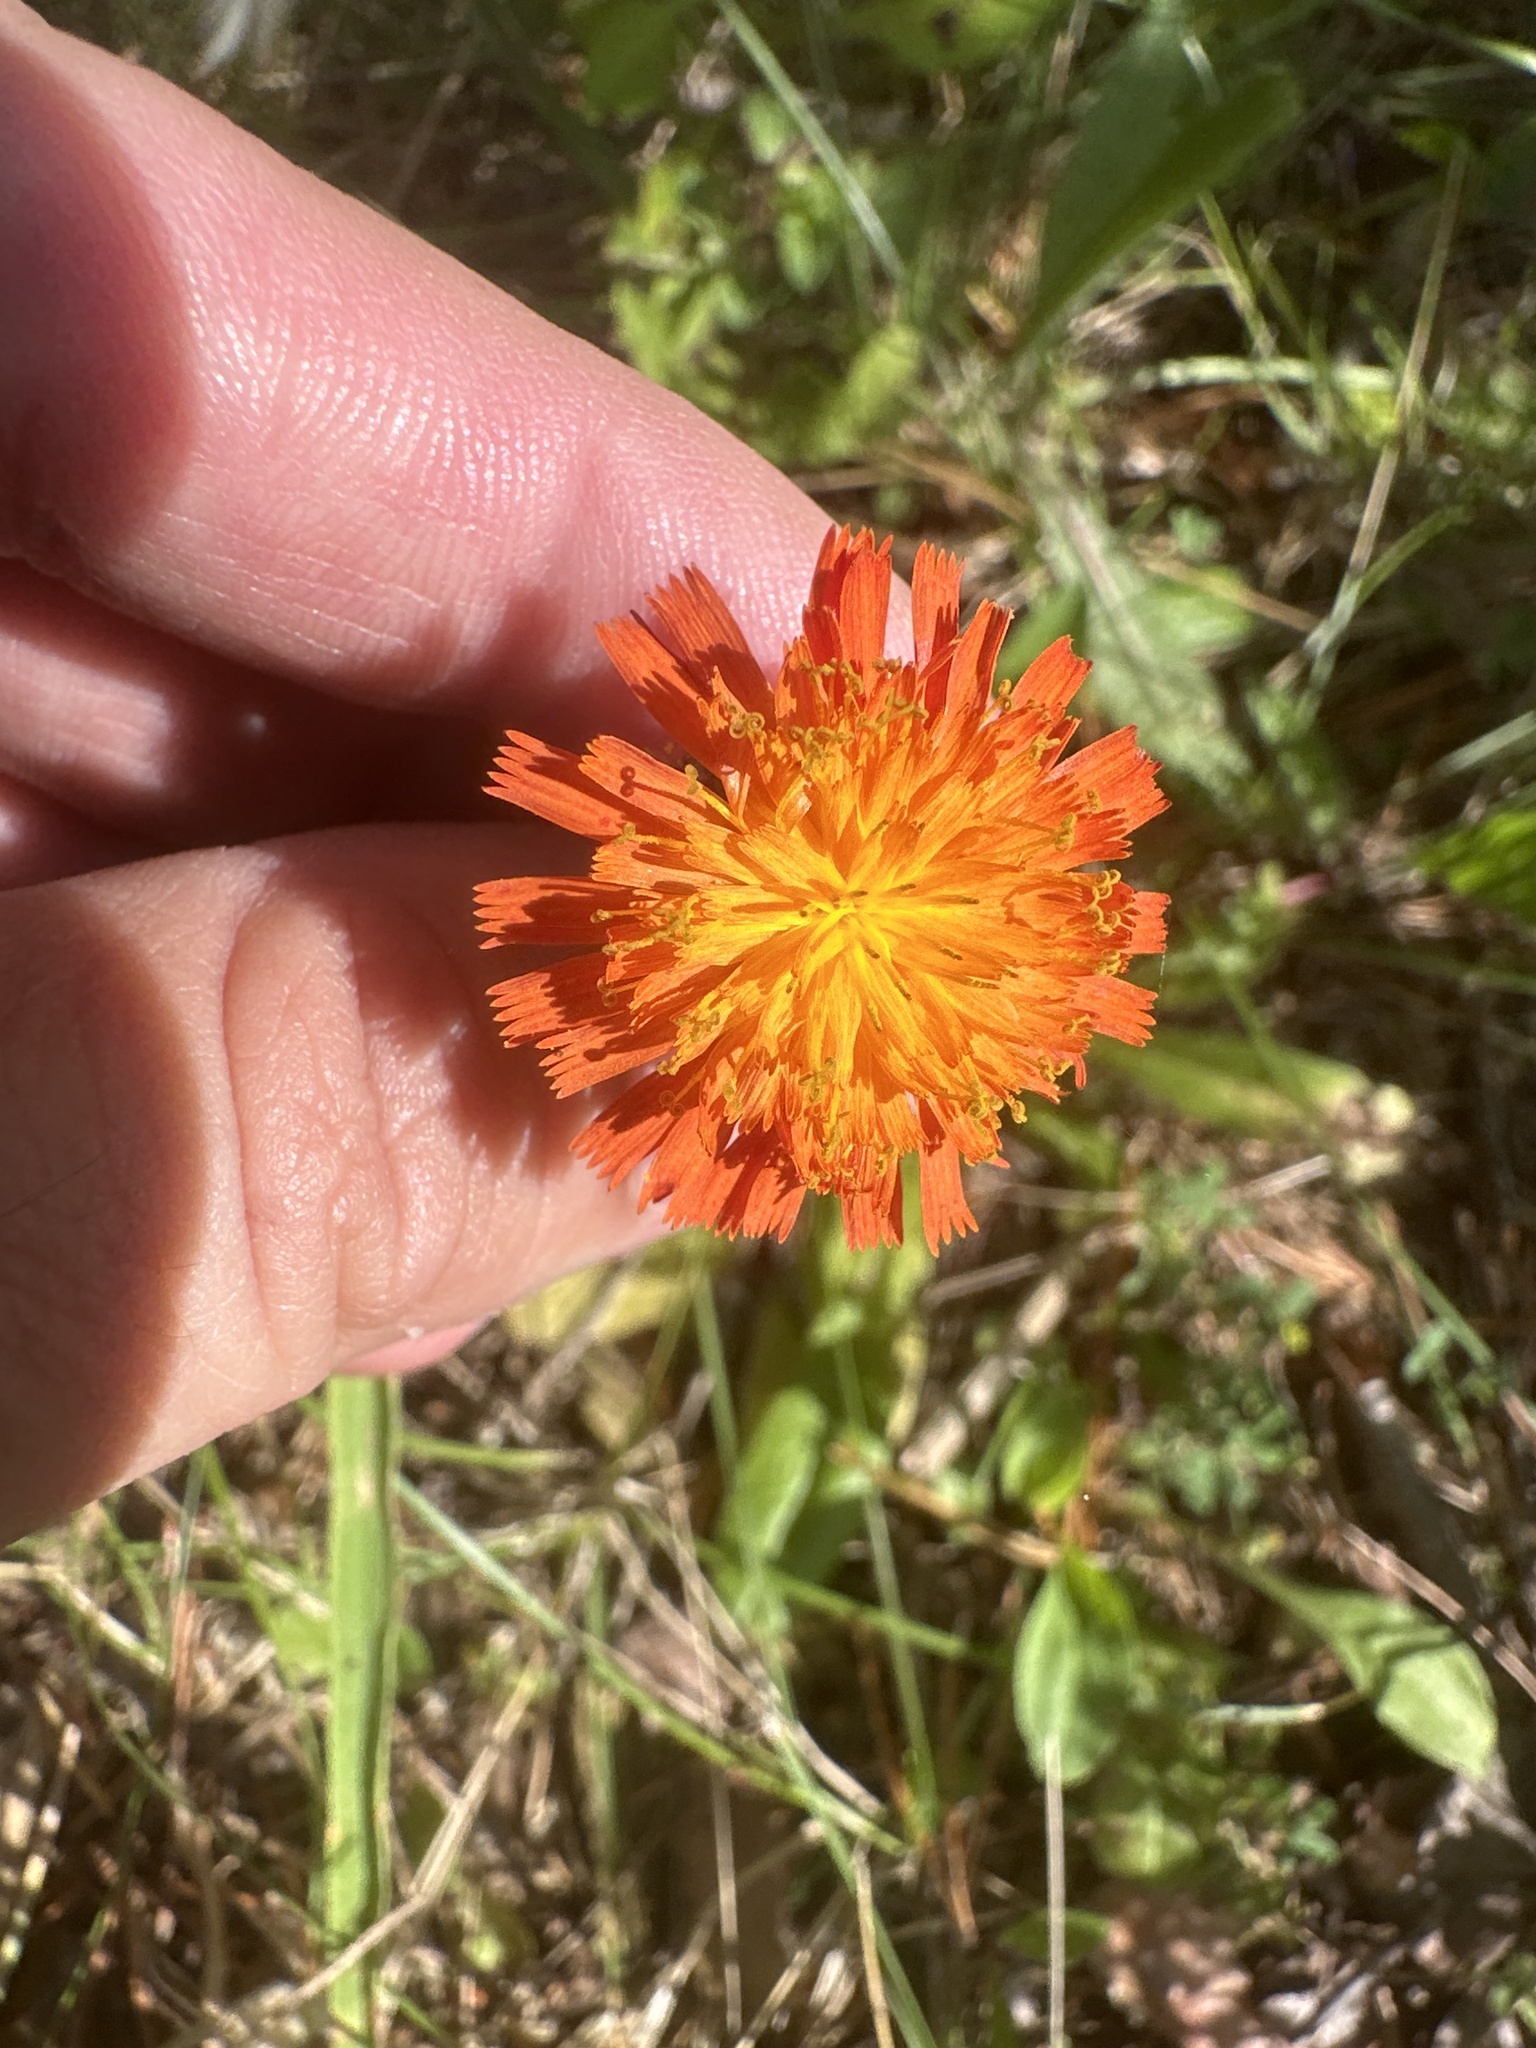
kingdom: Plantae
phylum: Tracheophyta
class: Magnoliopsida
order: Asterales
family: Asteraceae
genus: Pilosella
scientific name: Pilosella aurantiaca
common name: Fox-and-cubs
